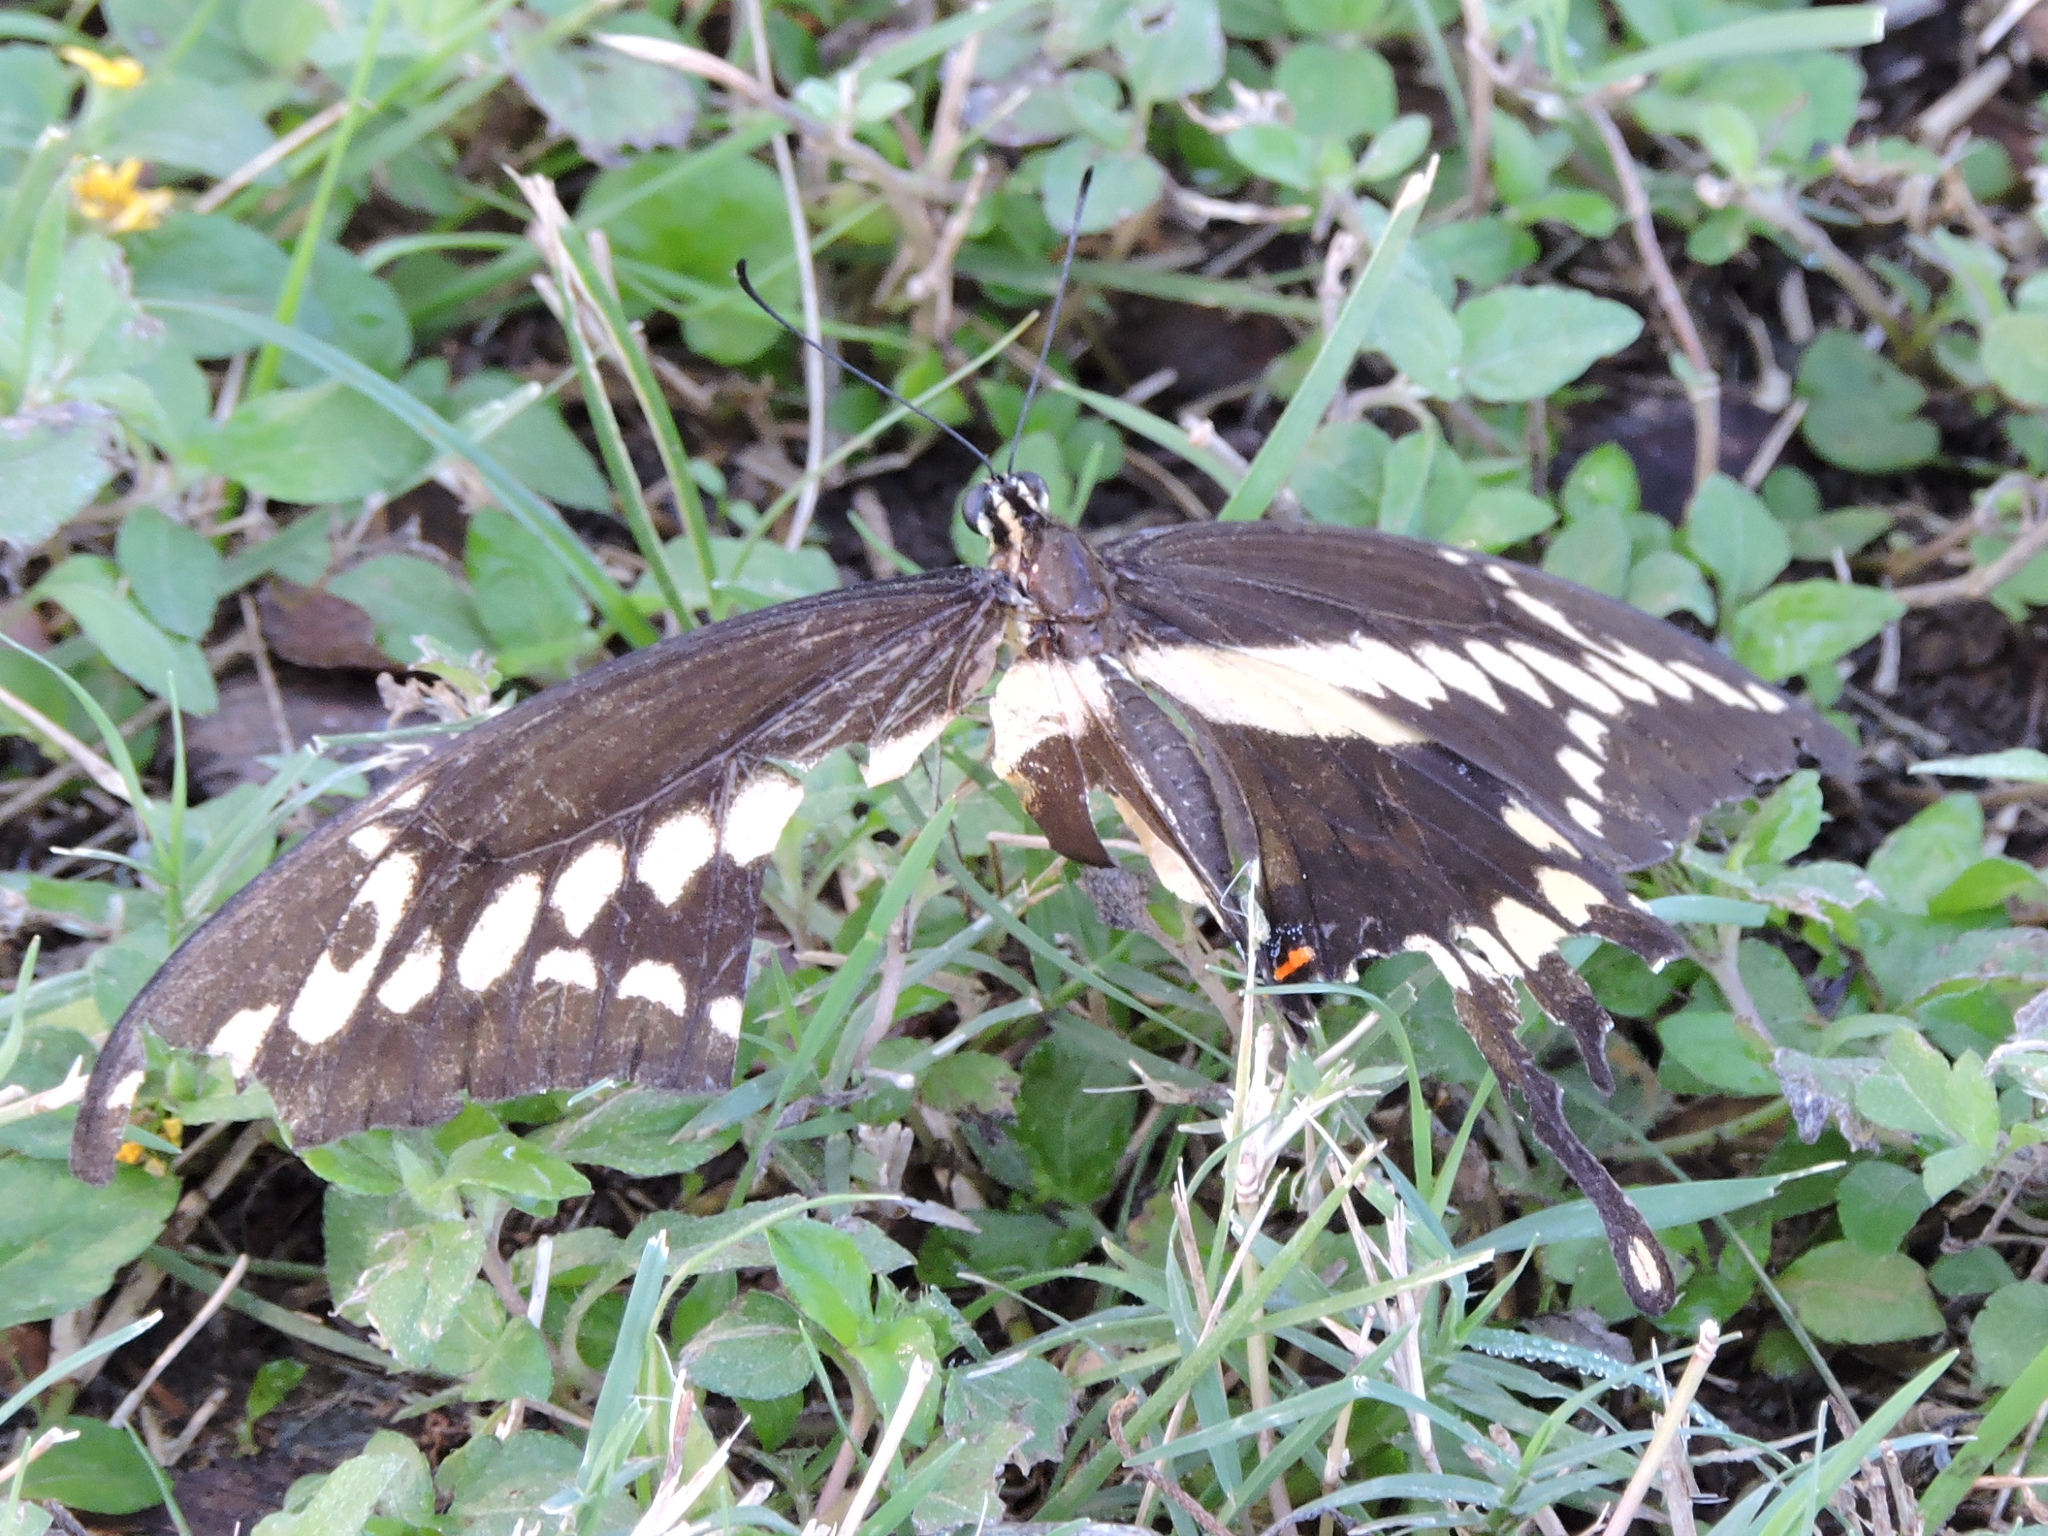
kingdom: Animalia
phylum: Arthropoda
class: Insecta
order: Lepidoptera
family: Papilionidae
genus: Papilio
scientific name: Papilio cresphontes
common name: Giant swallowtail
